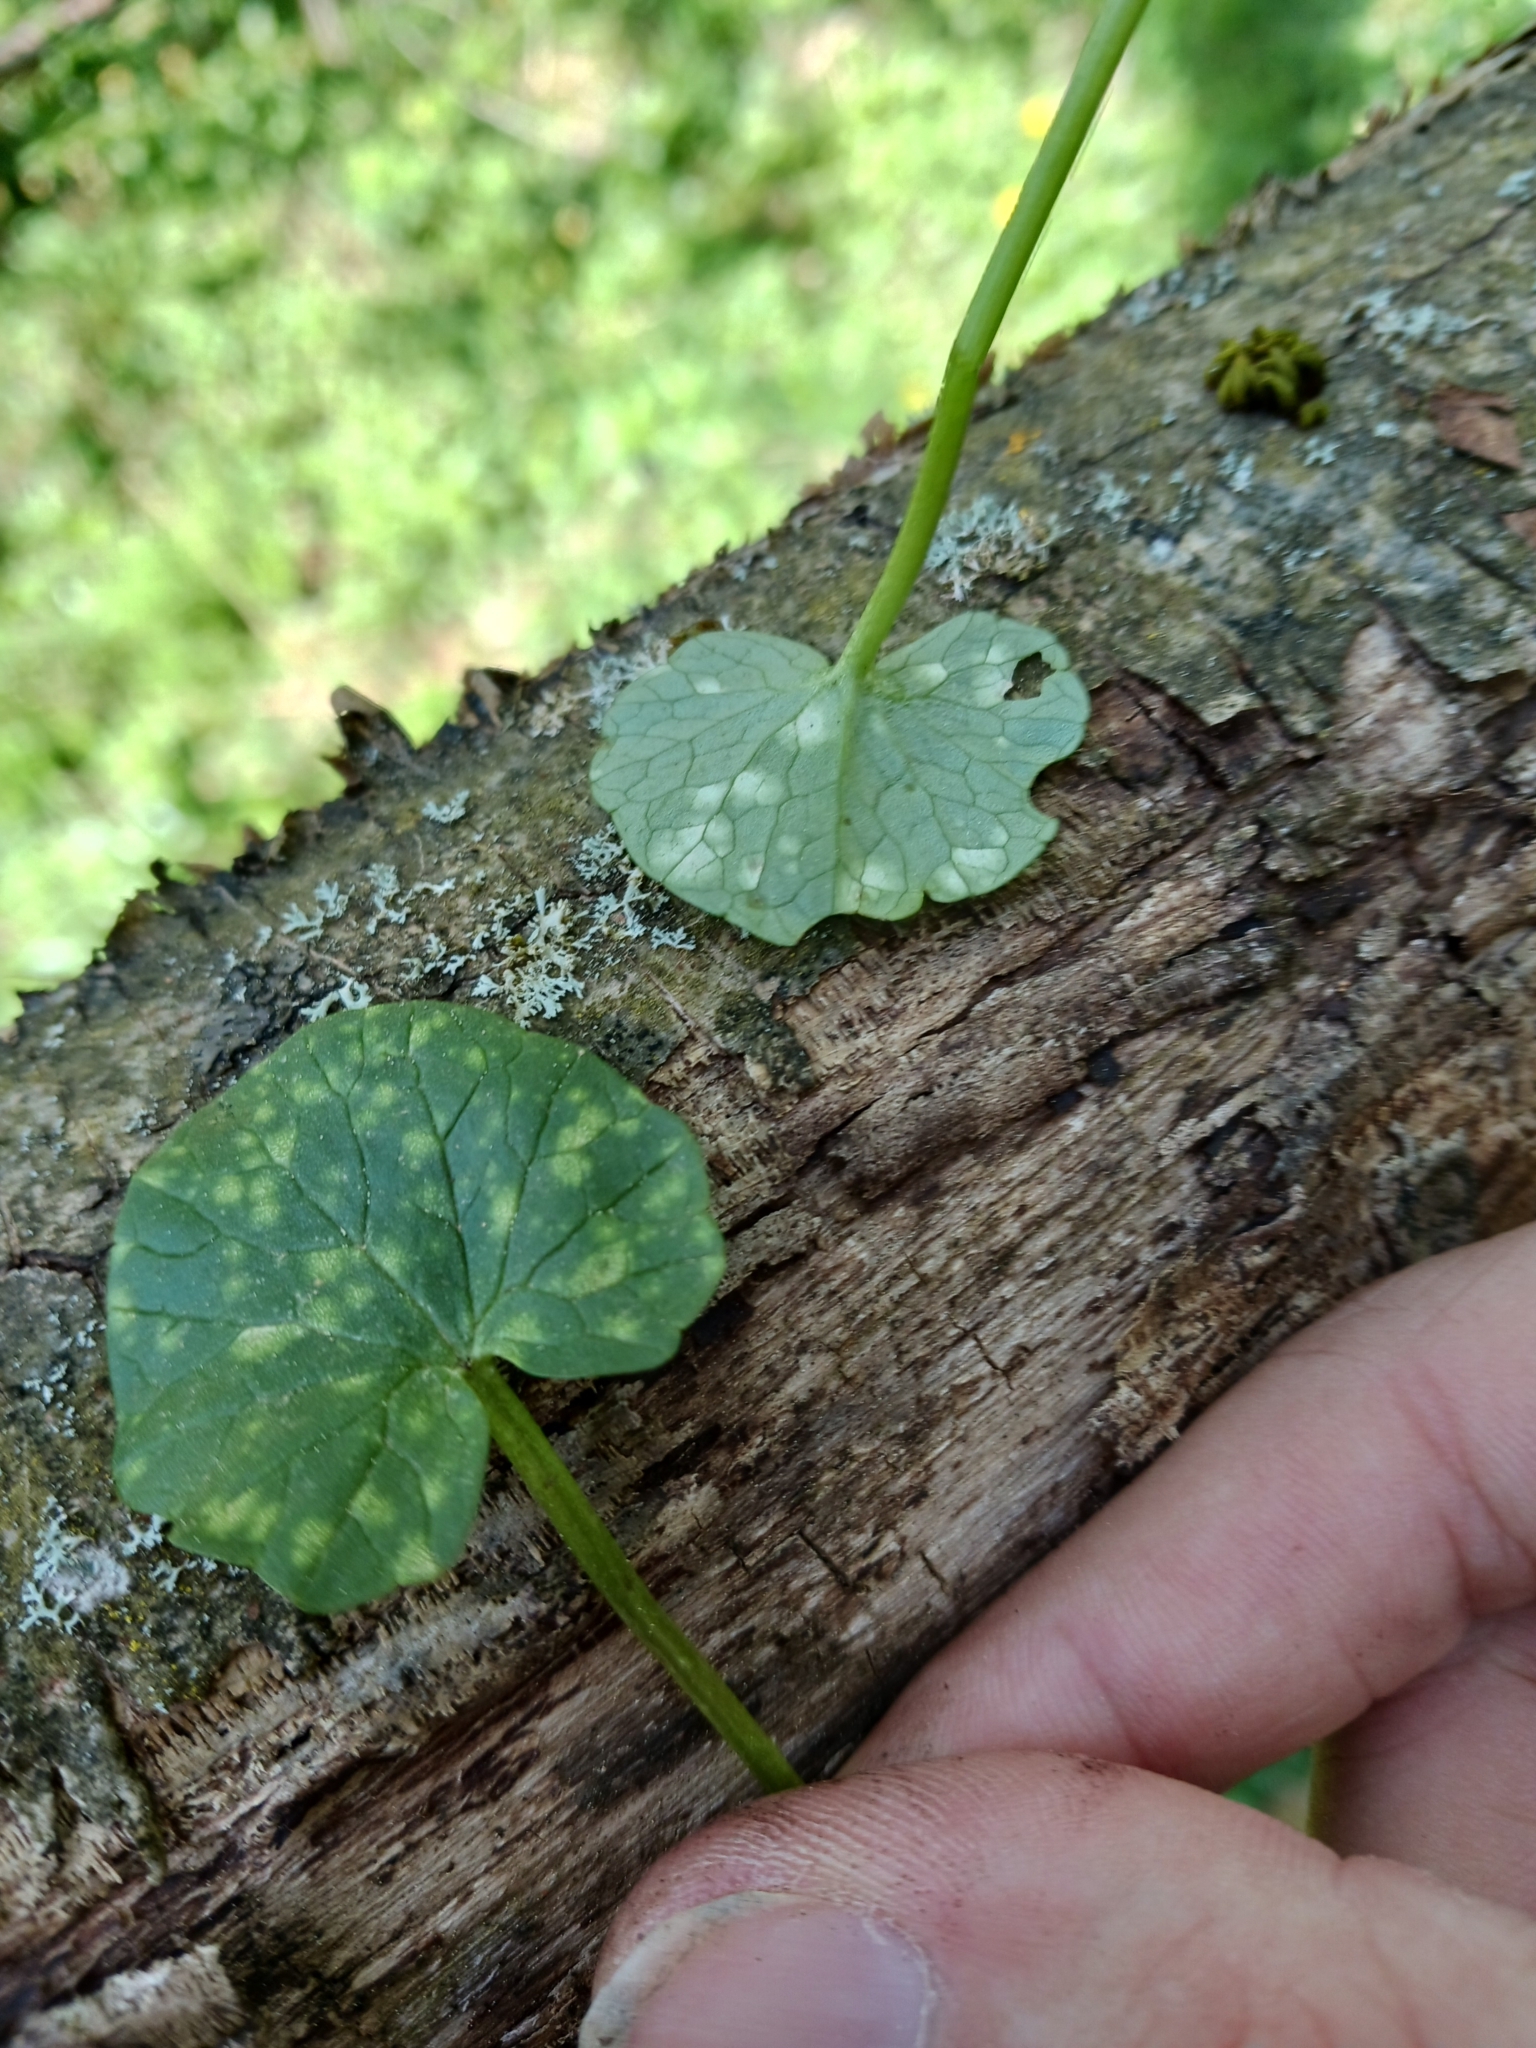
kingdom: Fungi
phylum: Basidiomycota
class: Exobasidiomycetes
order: Entylomatales
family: Entylomataceae
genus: Entyloma
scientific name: Entyloma ficariae
